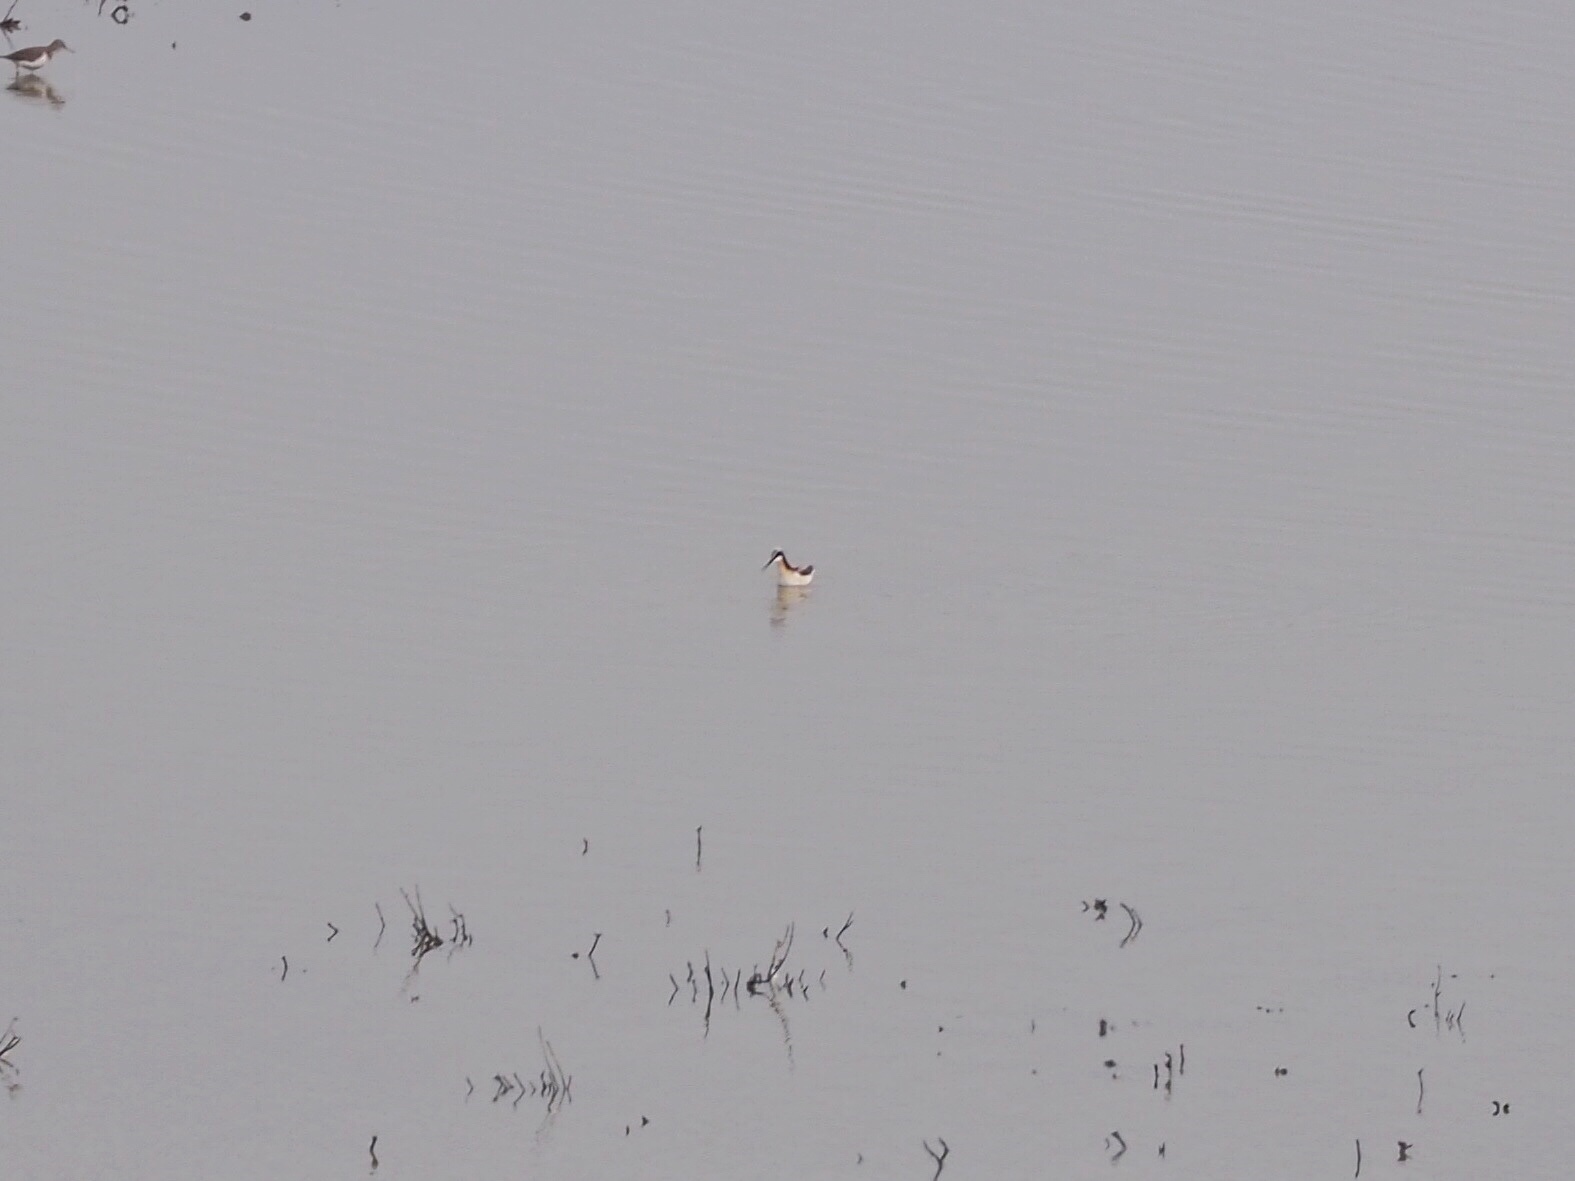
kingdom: Animalia
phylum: Chordata
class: Aves
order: Charadriiformes
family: Scolopacidae
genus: Phalaropus
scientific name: Phalaropus tricolor
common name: Wilson's phalarope
